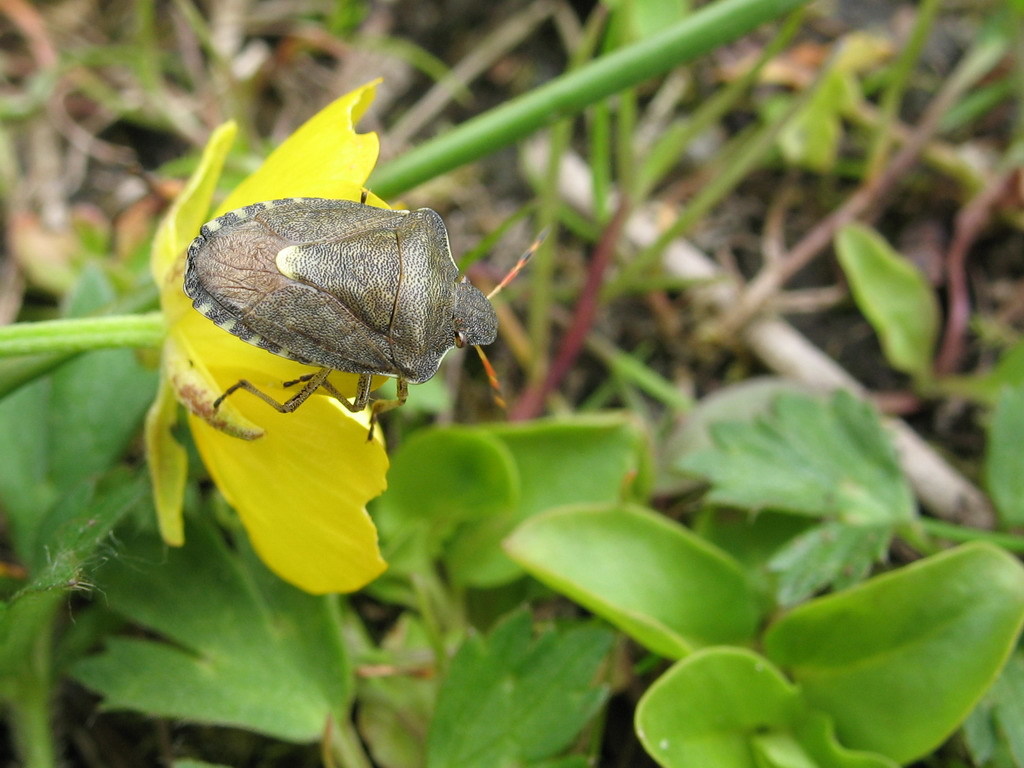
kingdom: Animalia
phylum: Arthropoda
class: Insecta
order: Hemiptera
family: Pentatomidae
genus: Holcostethus
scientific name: Holcostethus strictus
